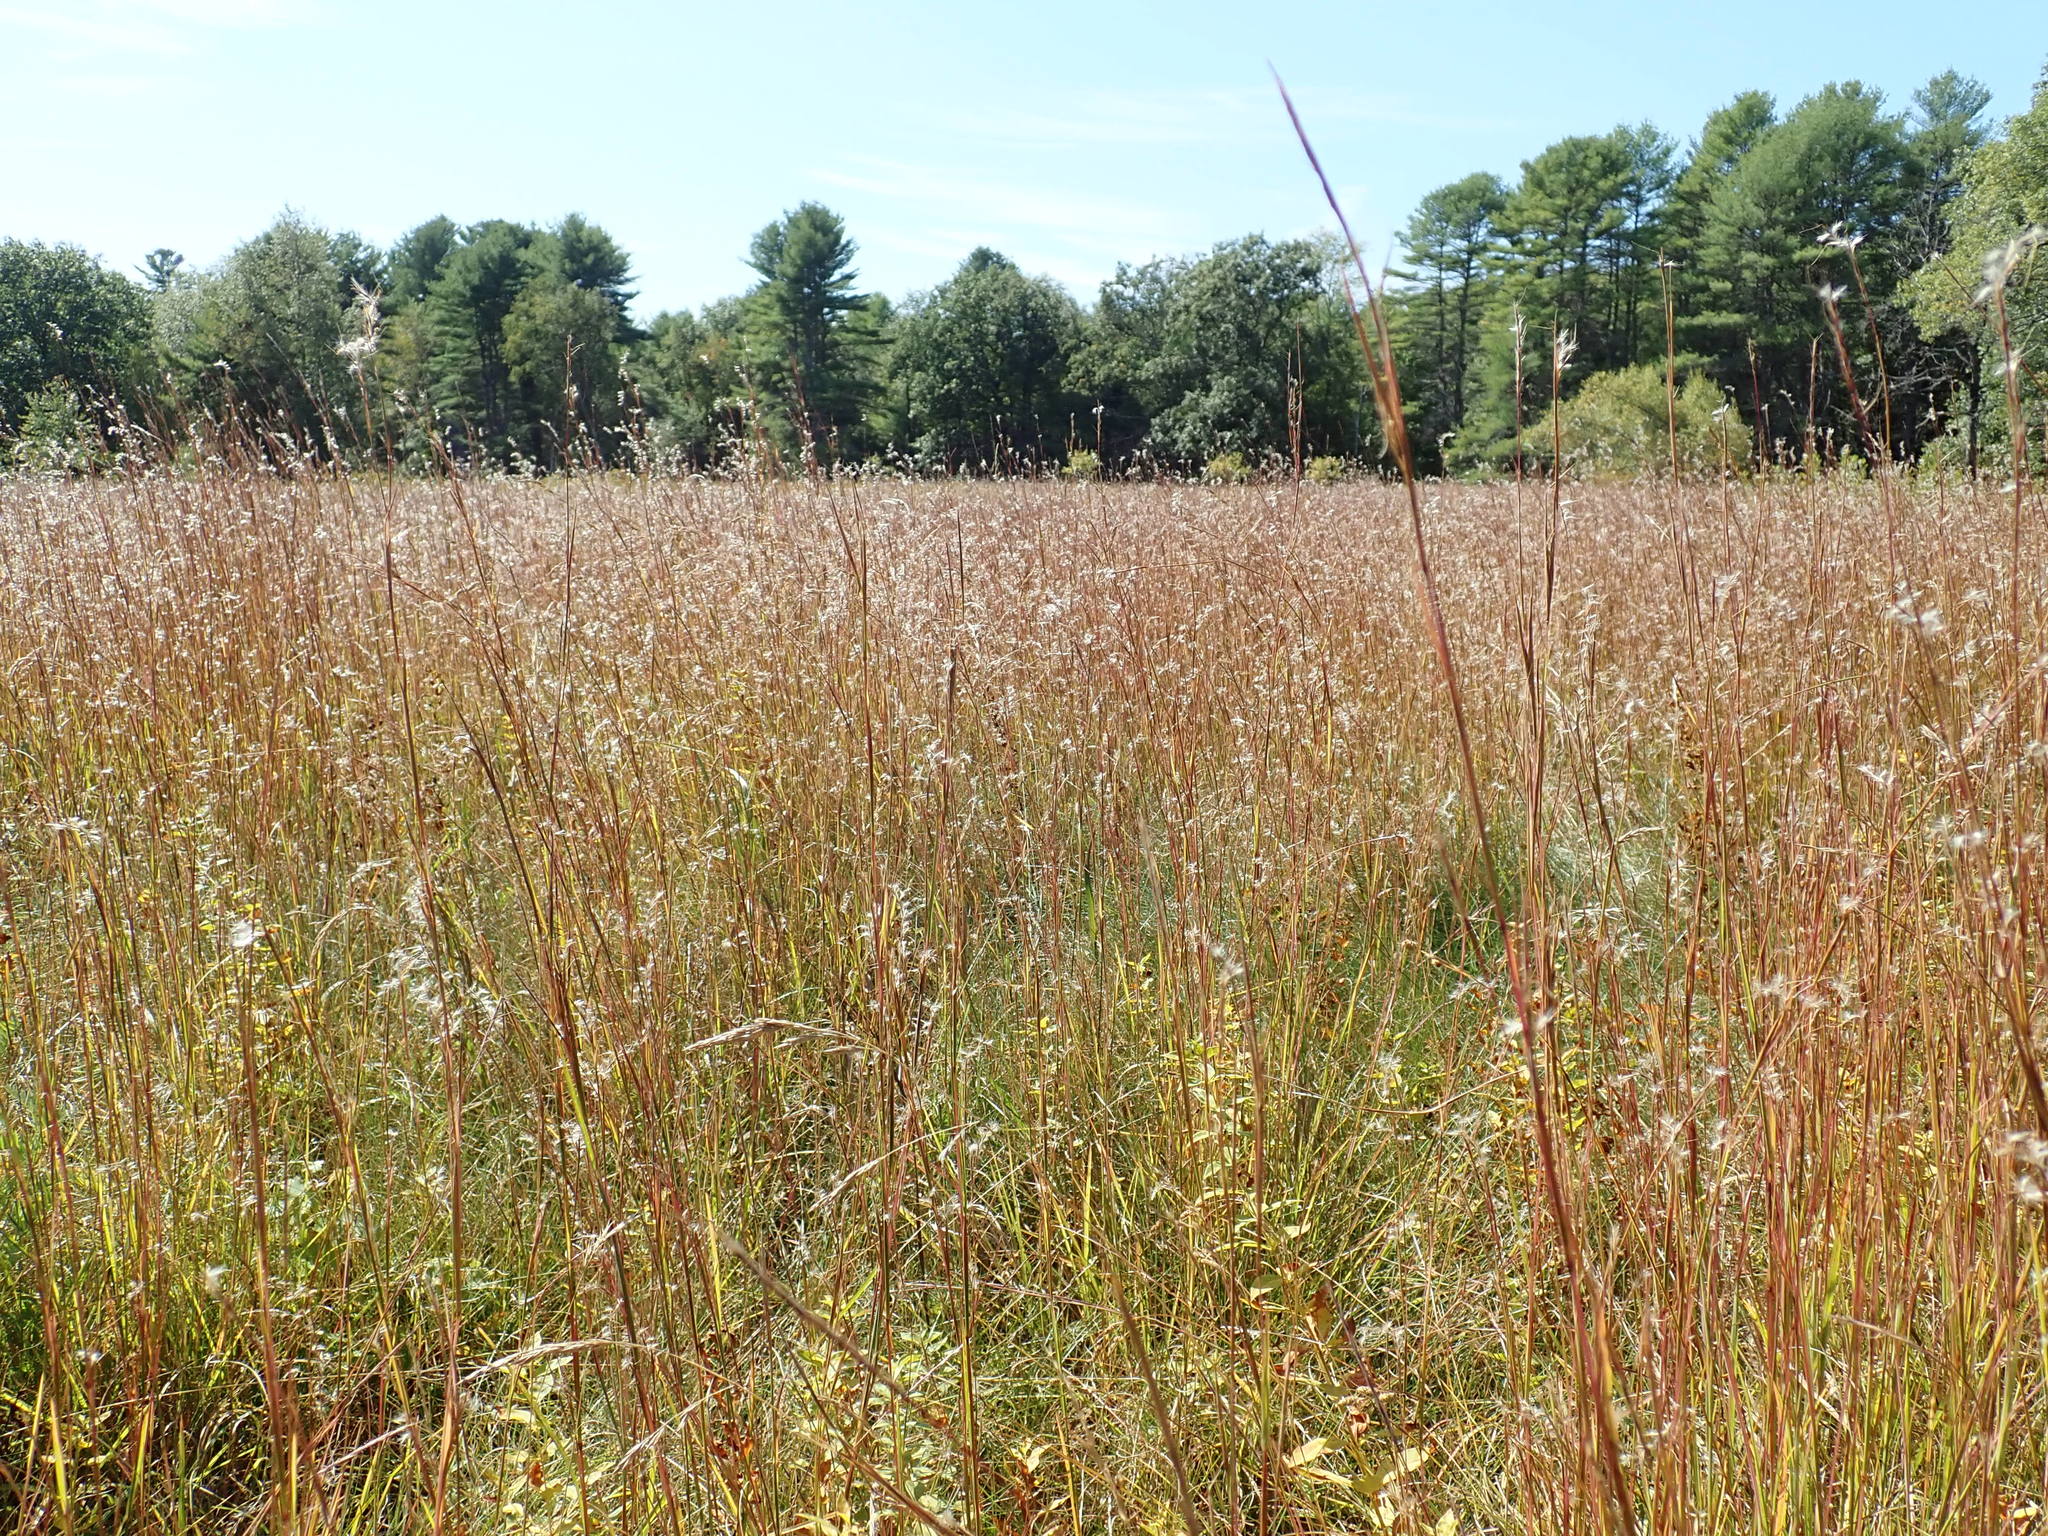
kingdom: Plantae
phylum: Tracheophyta
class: Liliopsida
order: Poales
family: Poaceae
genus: Schizachyrium
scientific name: Schizachyrium scoparium
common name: Little bluestem
